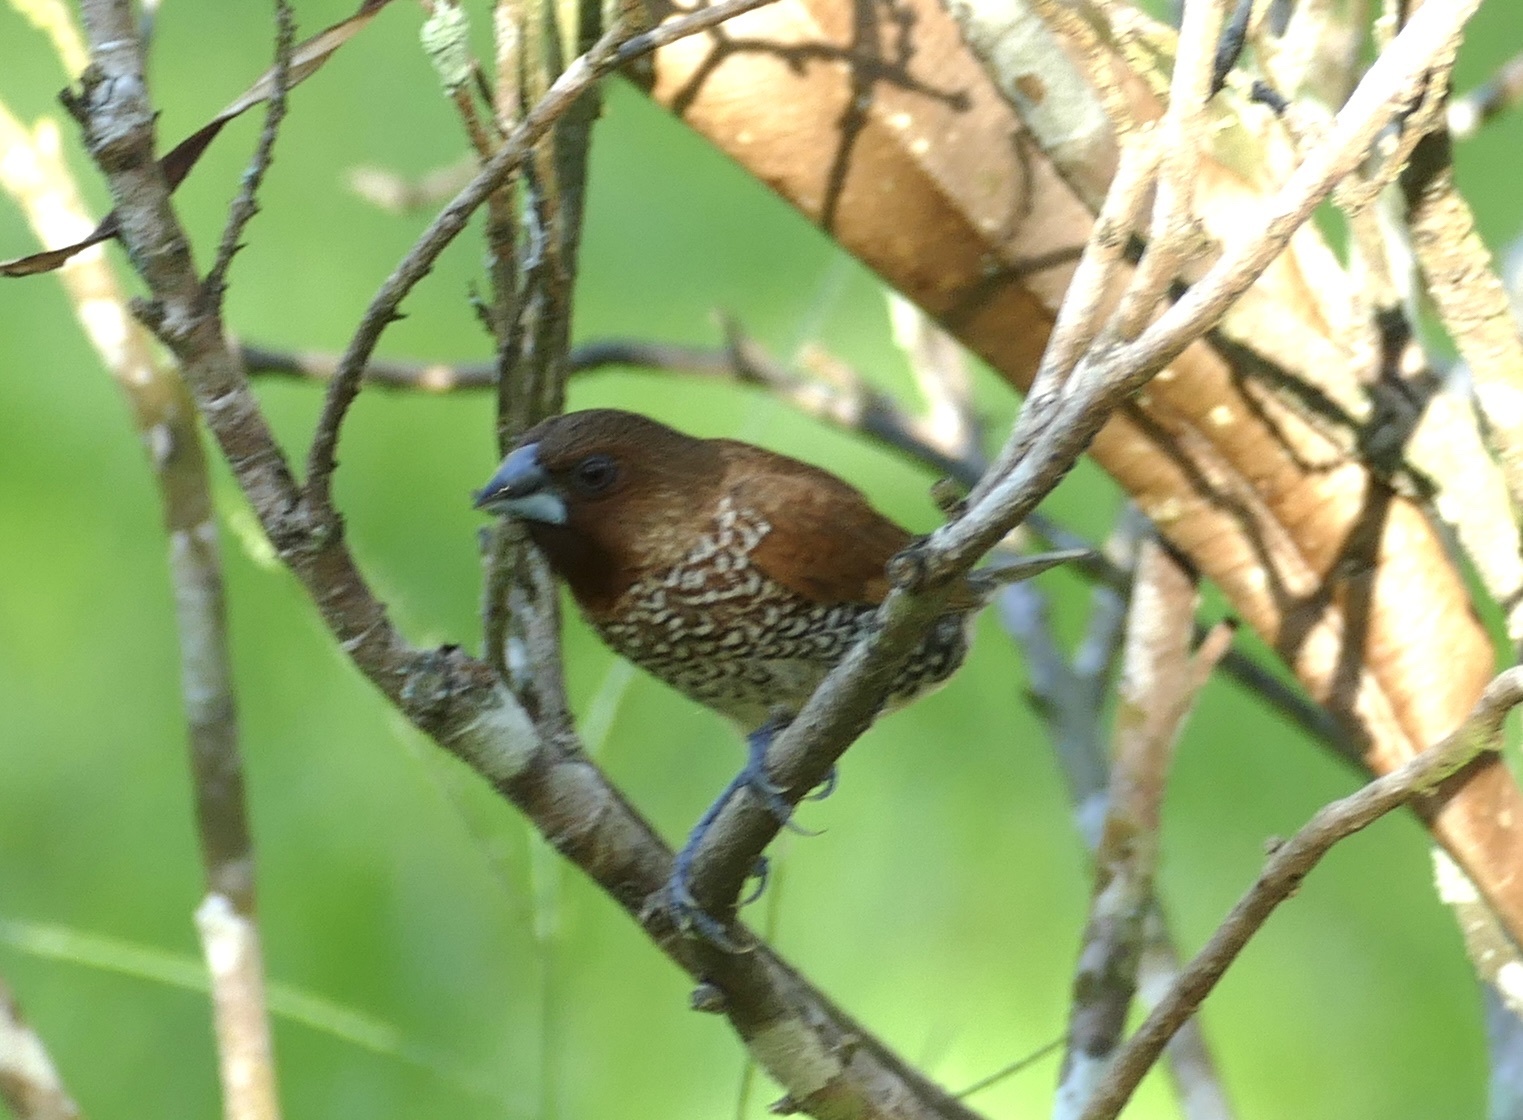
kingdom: Animalia
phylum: Chordata
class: Aves
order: Passeriformes
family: Estrildidae
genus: Lonchura
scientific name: Lonchura punctulata
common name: Scaly-breasted munia
